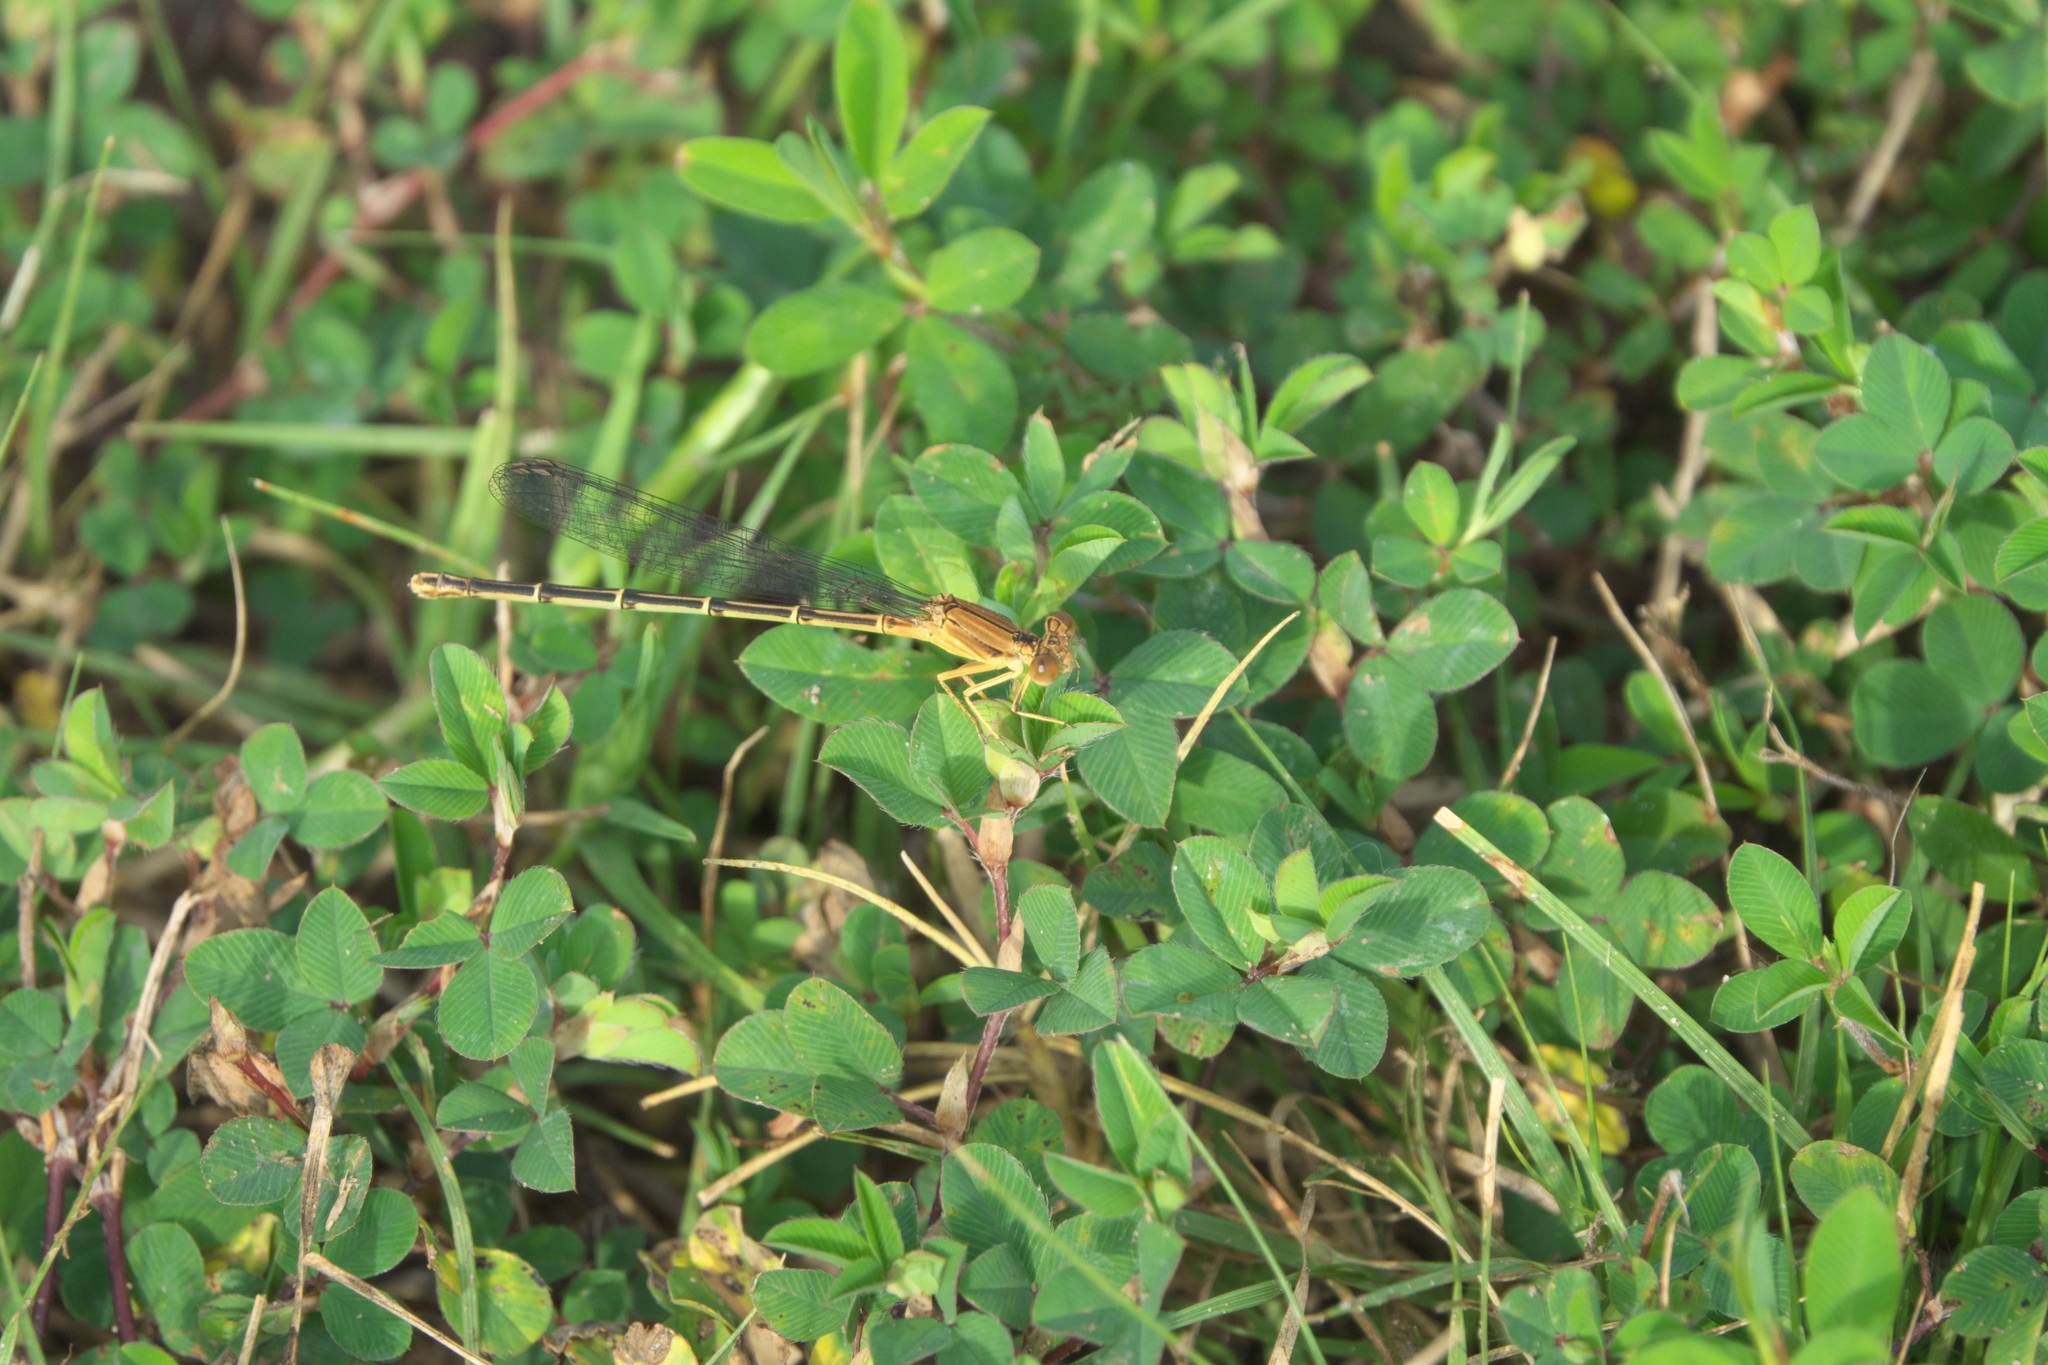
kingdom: Plantae
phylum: Tracheophyta
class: Magnoliopsida
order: Fabales
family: Fabaceae
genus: Kummerowia
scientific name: Kummerowia stipulacea
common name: Korean clover
